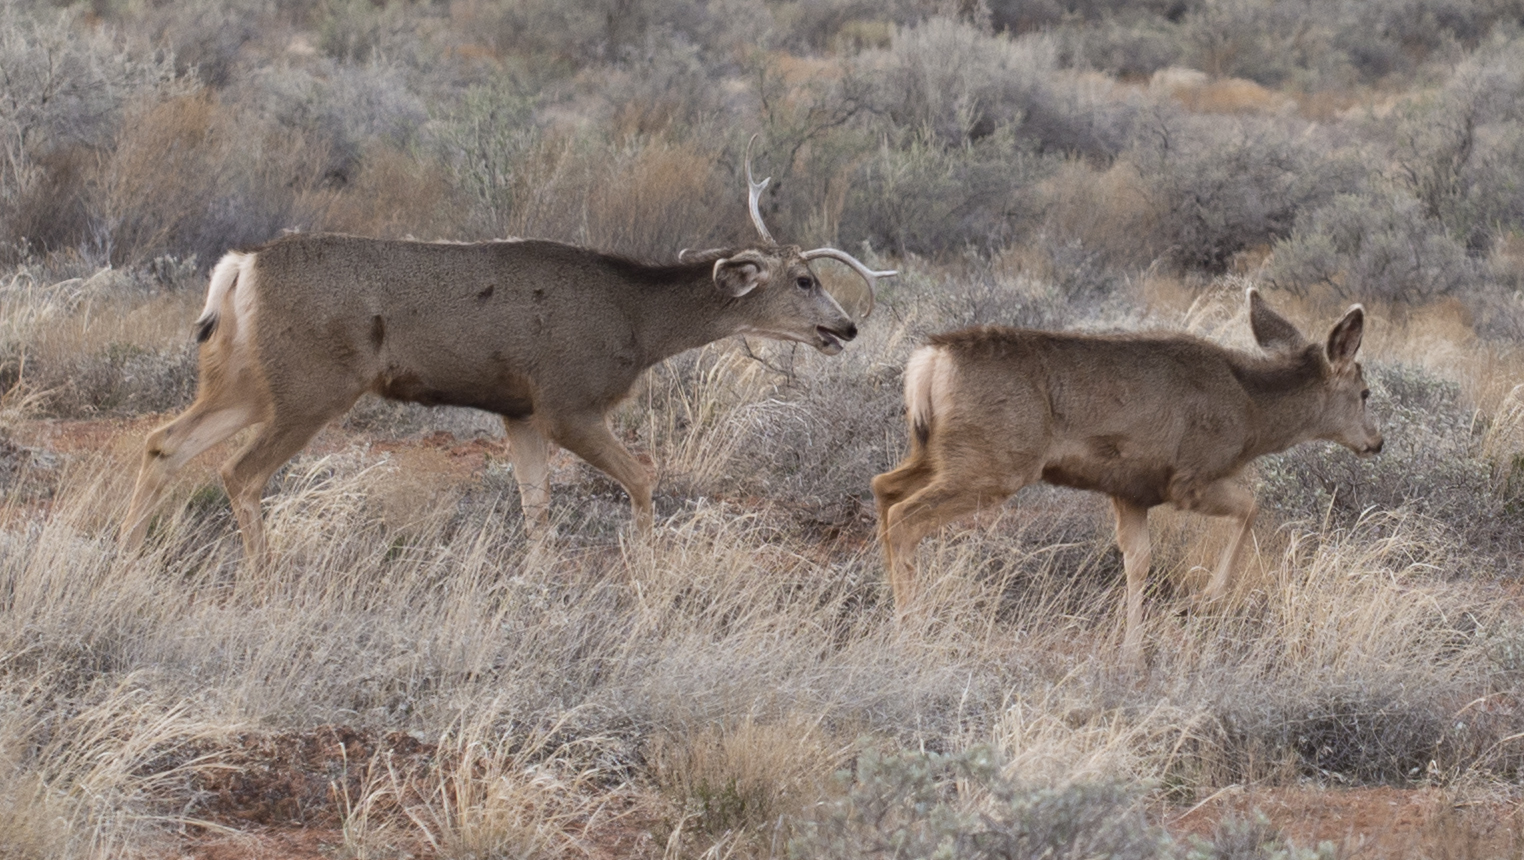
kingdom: Animalia
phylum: Chordata
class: Mammalia
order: Artiodactyla
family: Cervidae
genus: Odocoileus
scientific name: Odocoileus hemionus
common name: Mule deer
